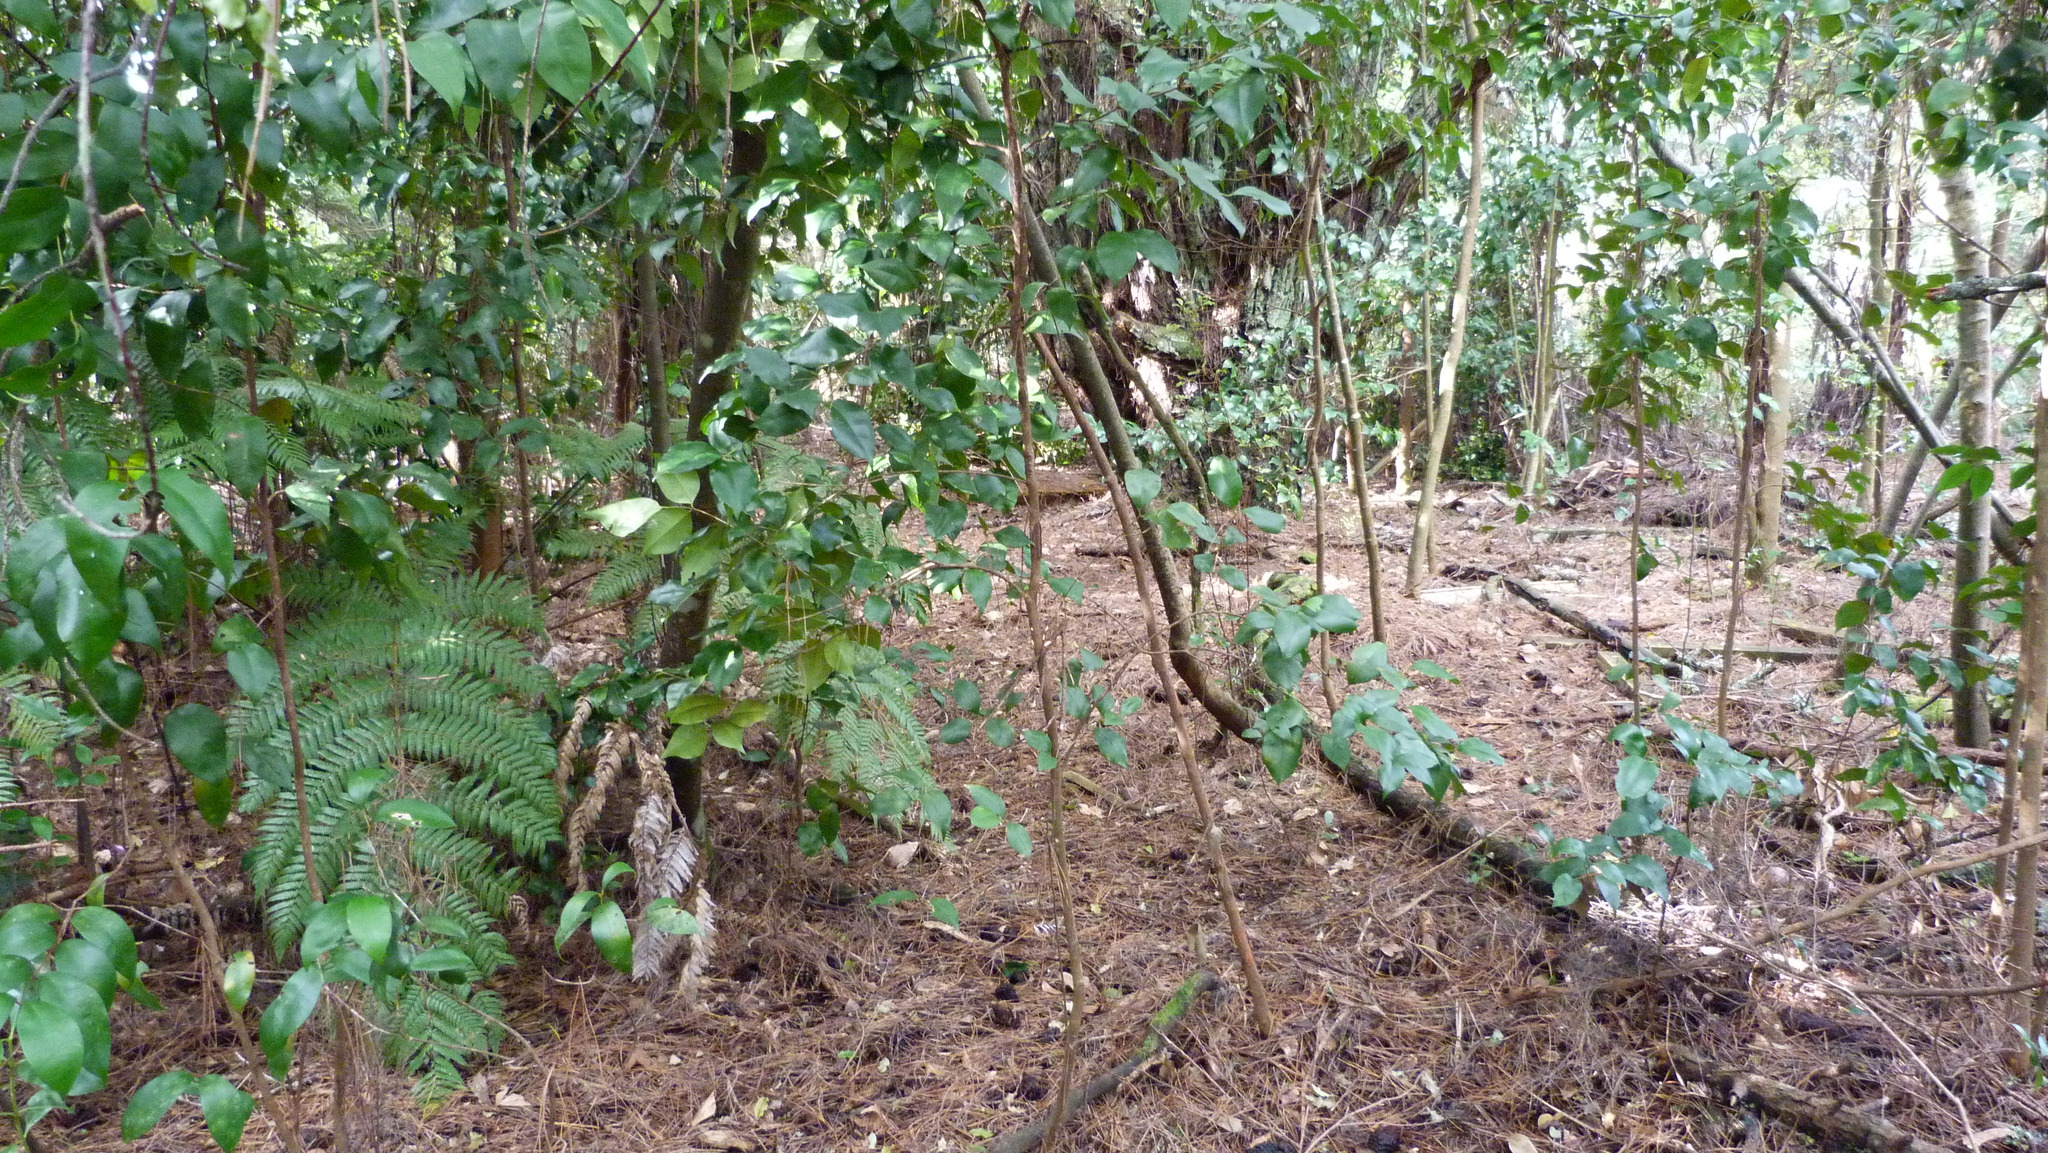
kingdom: Plantae
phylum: Tracheophyta
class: Magnoliopsida
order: Gentianales
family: Loganiaceae
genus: Geniostoma
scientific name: Geniostoma ligustrifolium
